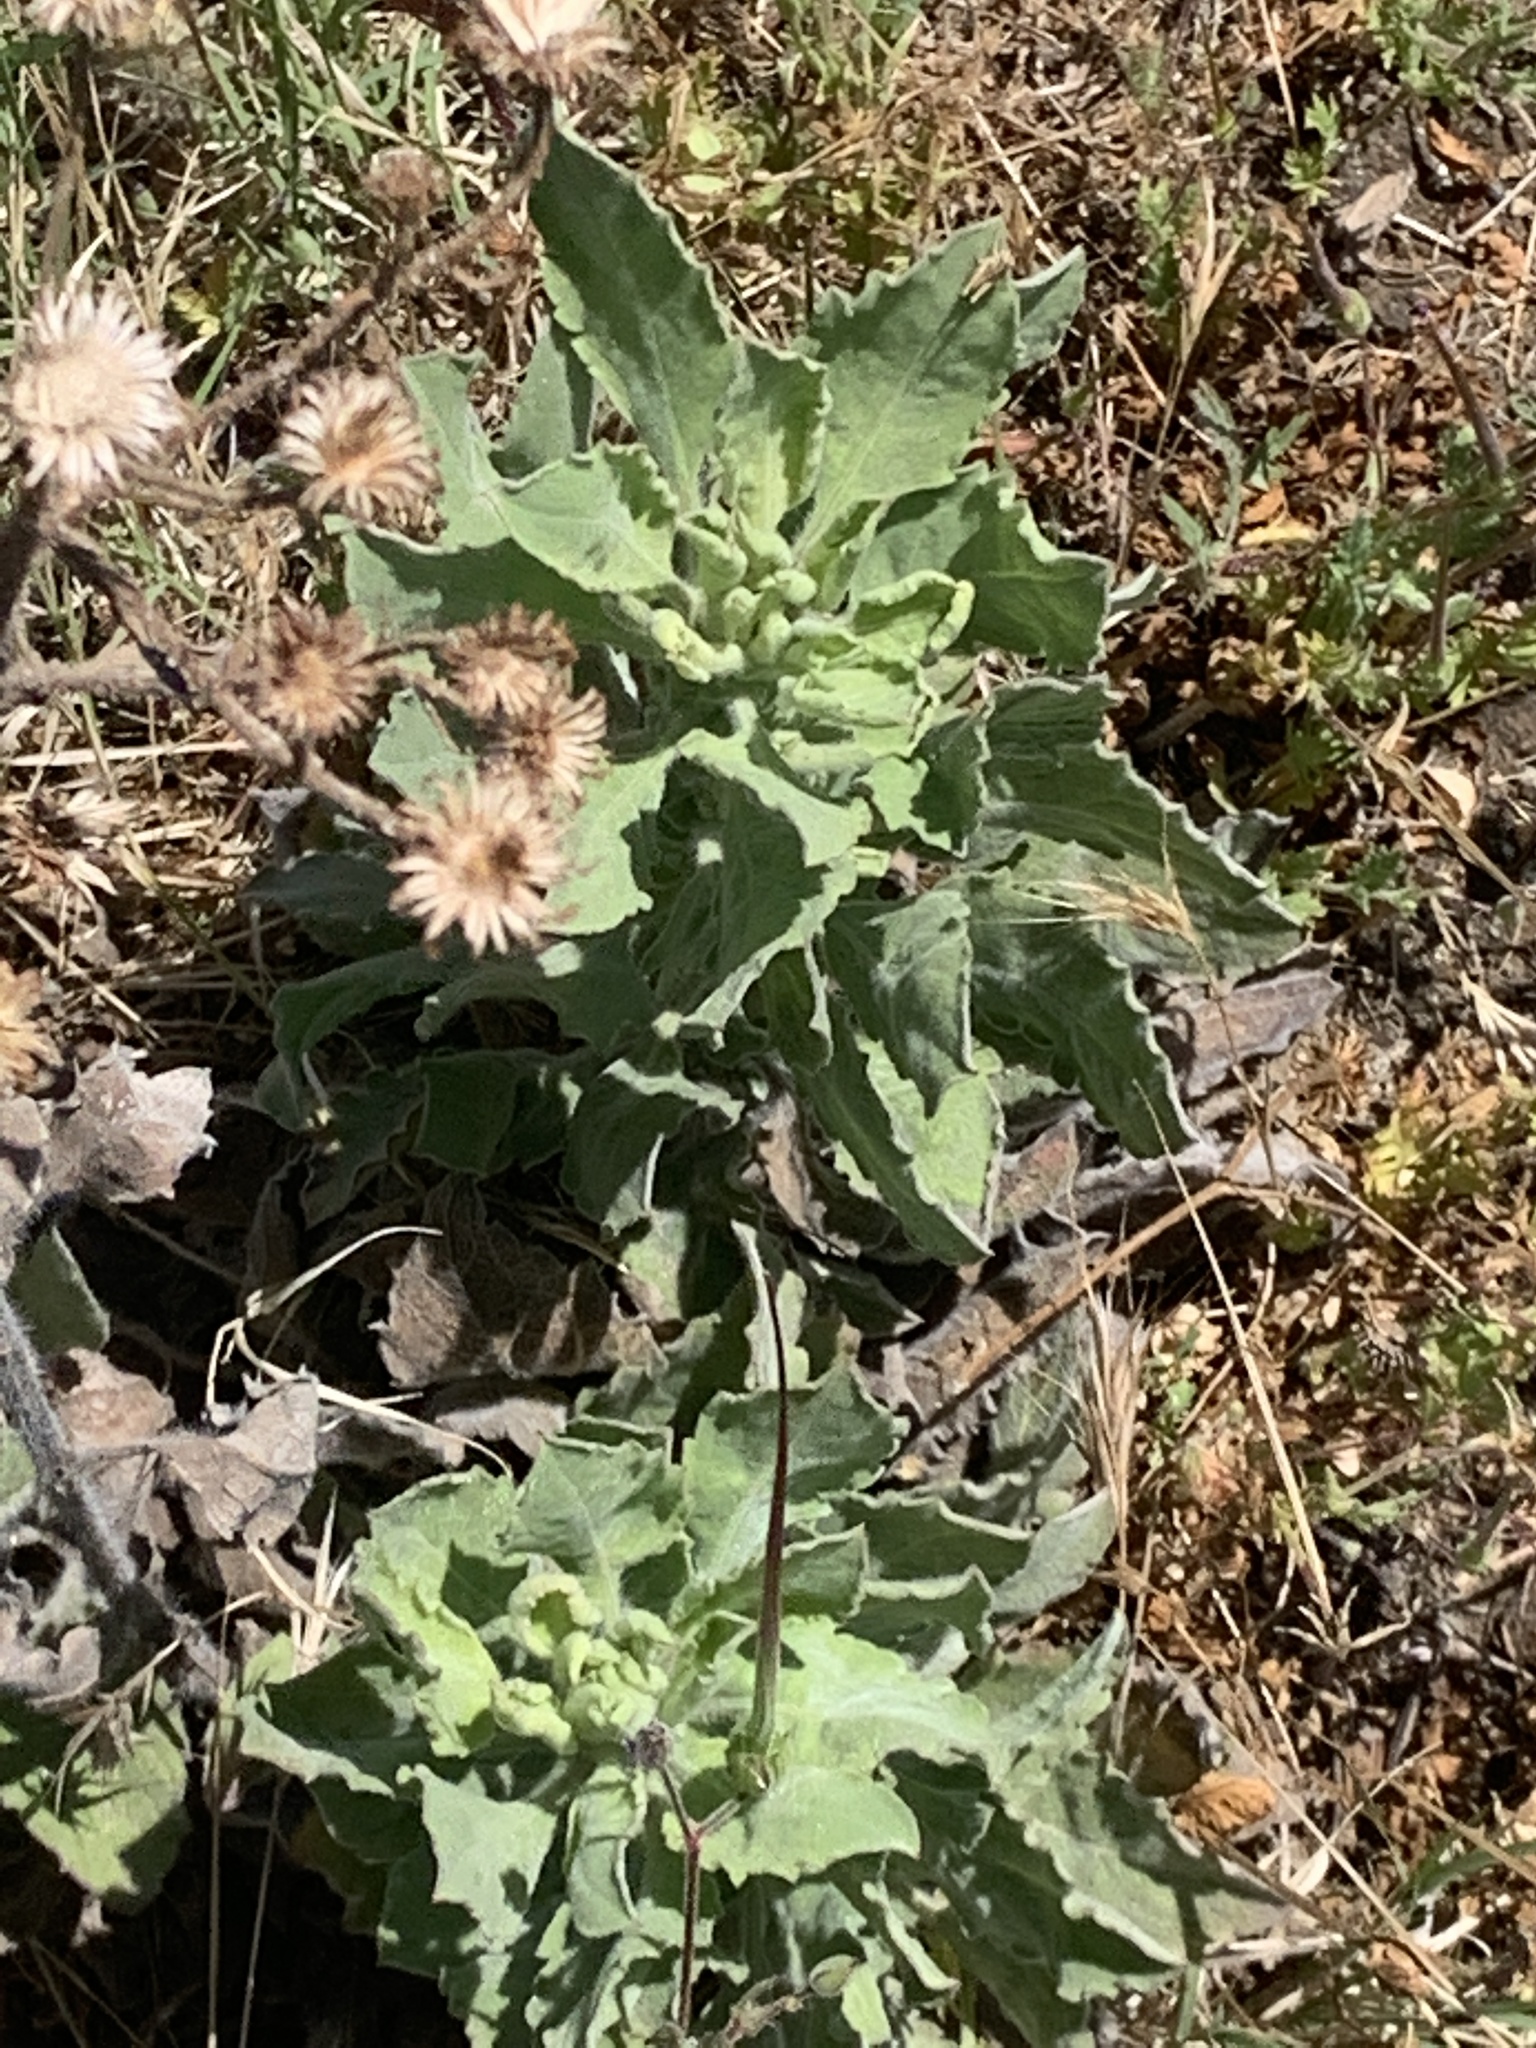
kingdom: Plantae
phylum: Tracheophyta
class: Magnoliopsida
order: Asterales
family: Asteraceae
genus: Heterotheca
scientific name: Heterotheca grandiflora
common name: Telegraphweed
